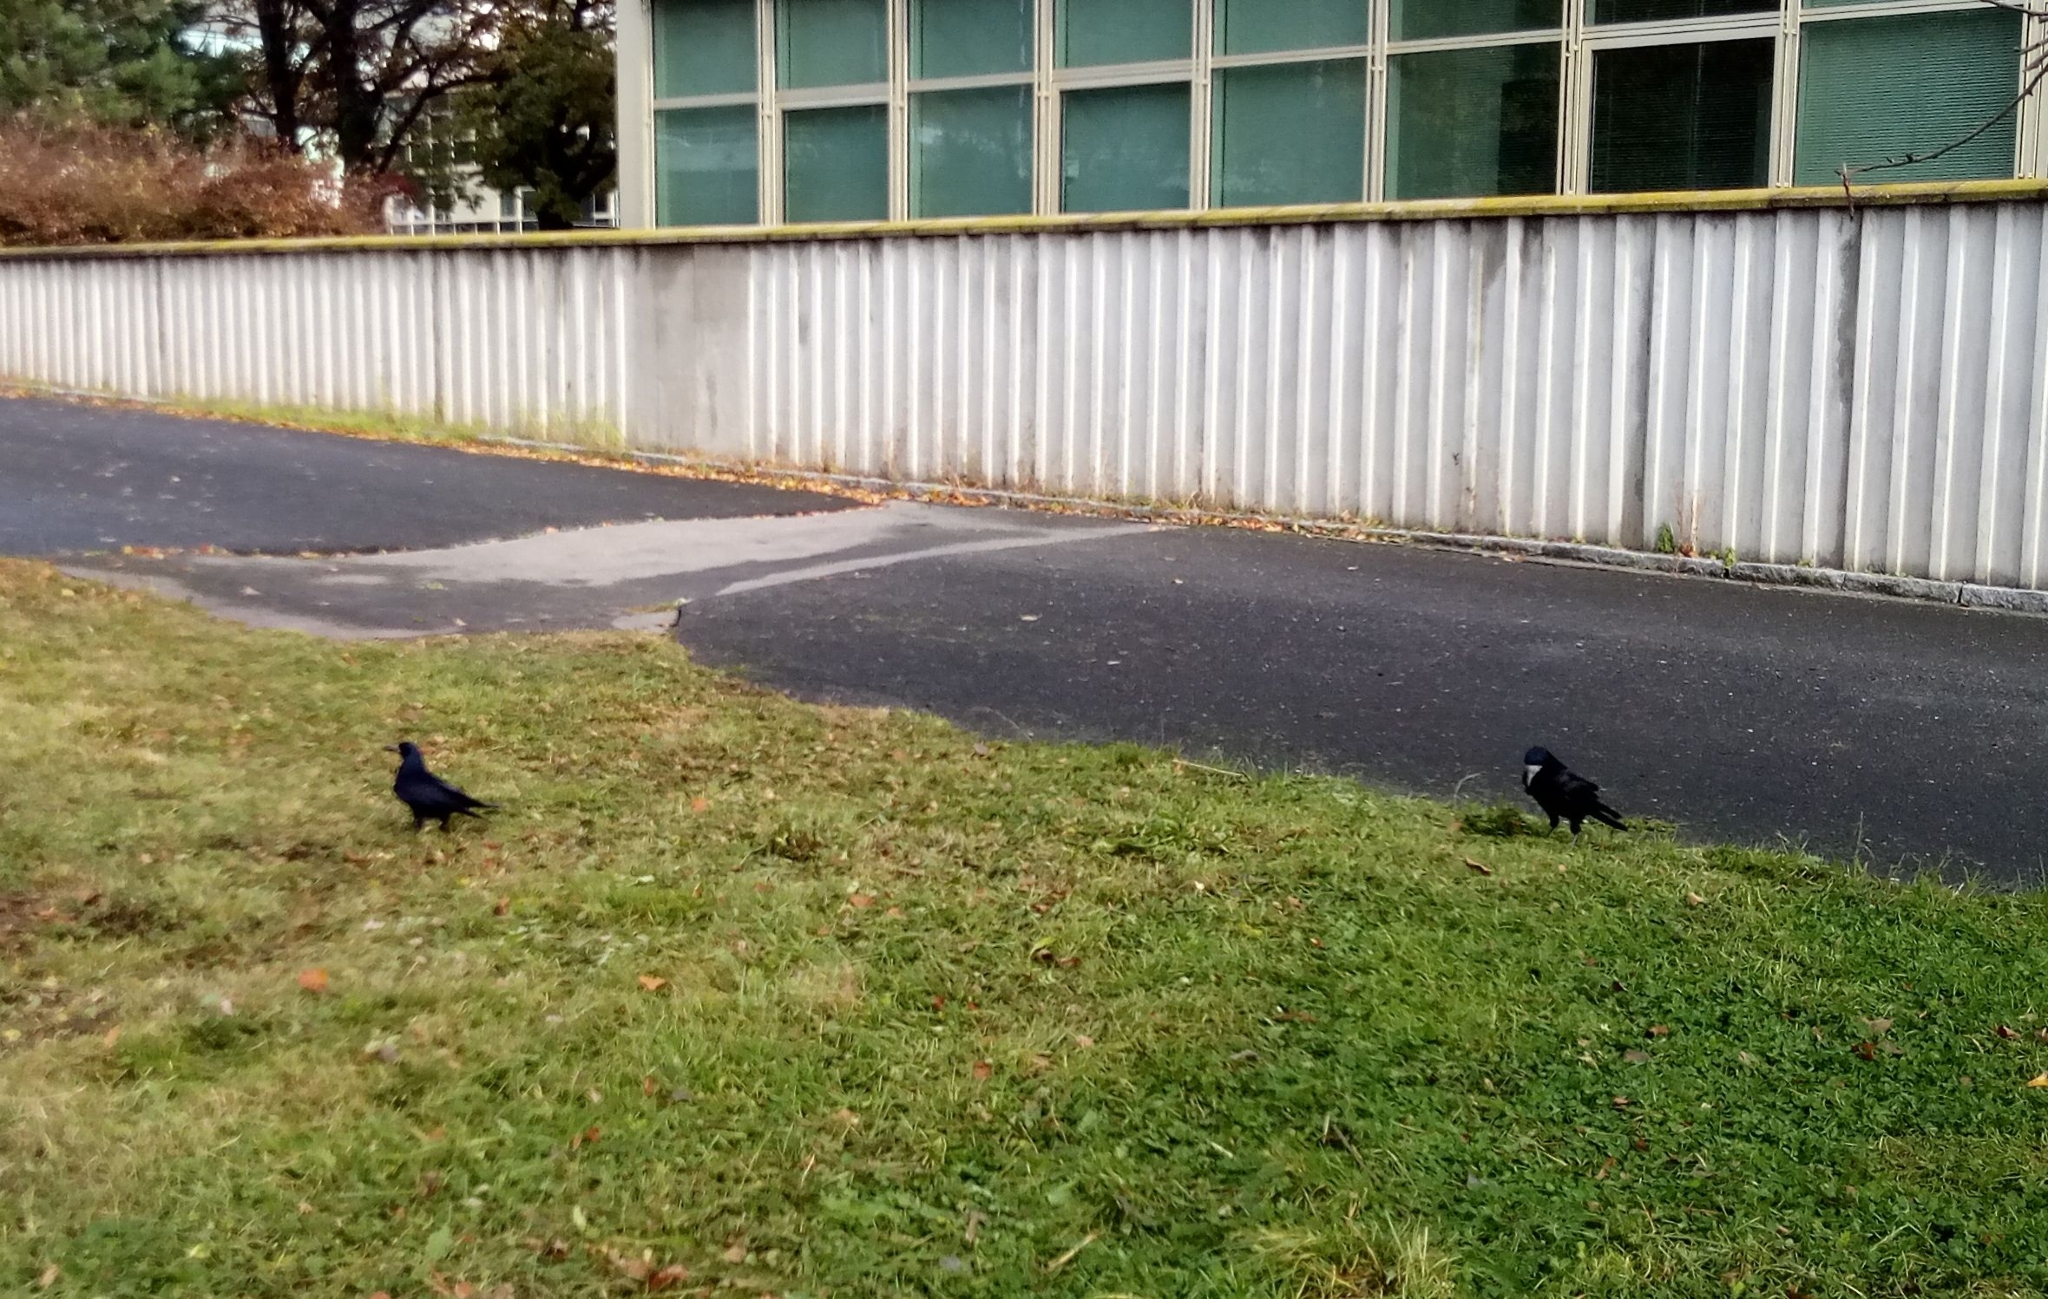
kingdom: Animalia
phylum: Chordata
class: Aves
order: Passeriformes
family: Corvidae
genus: Corvus
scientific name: Corvus frugilegus
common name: Rook
